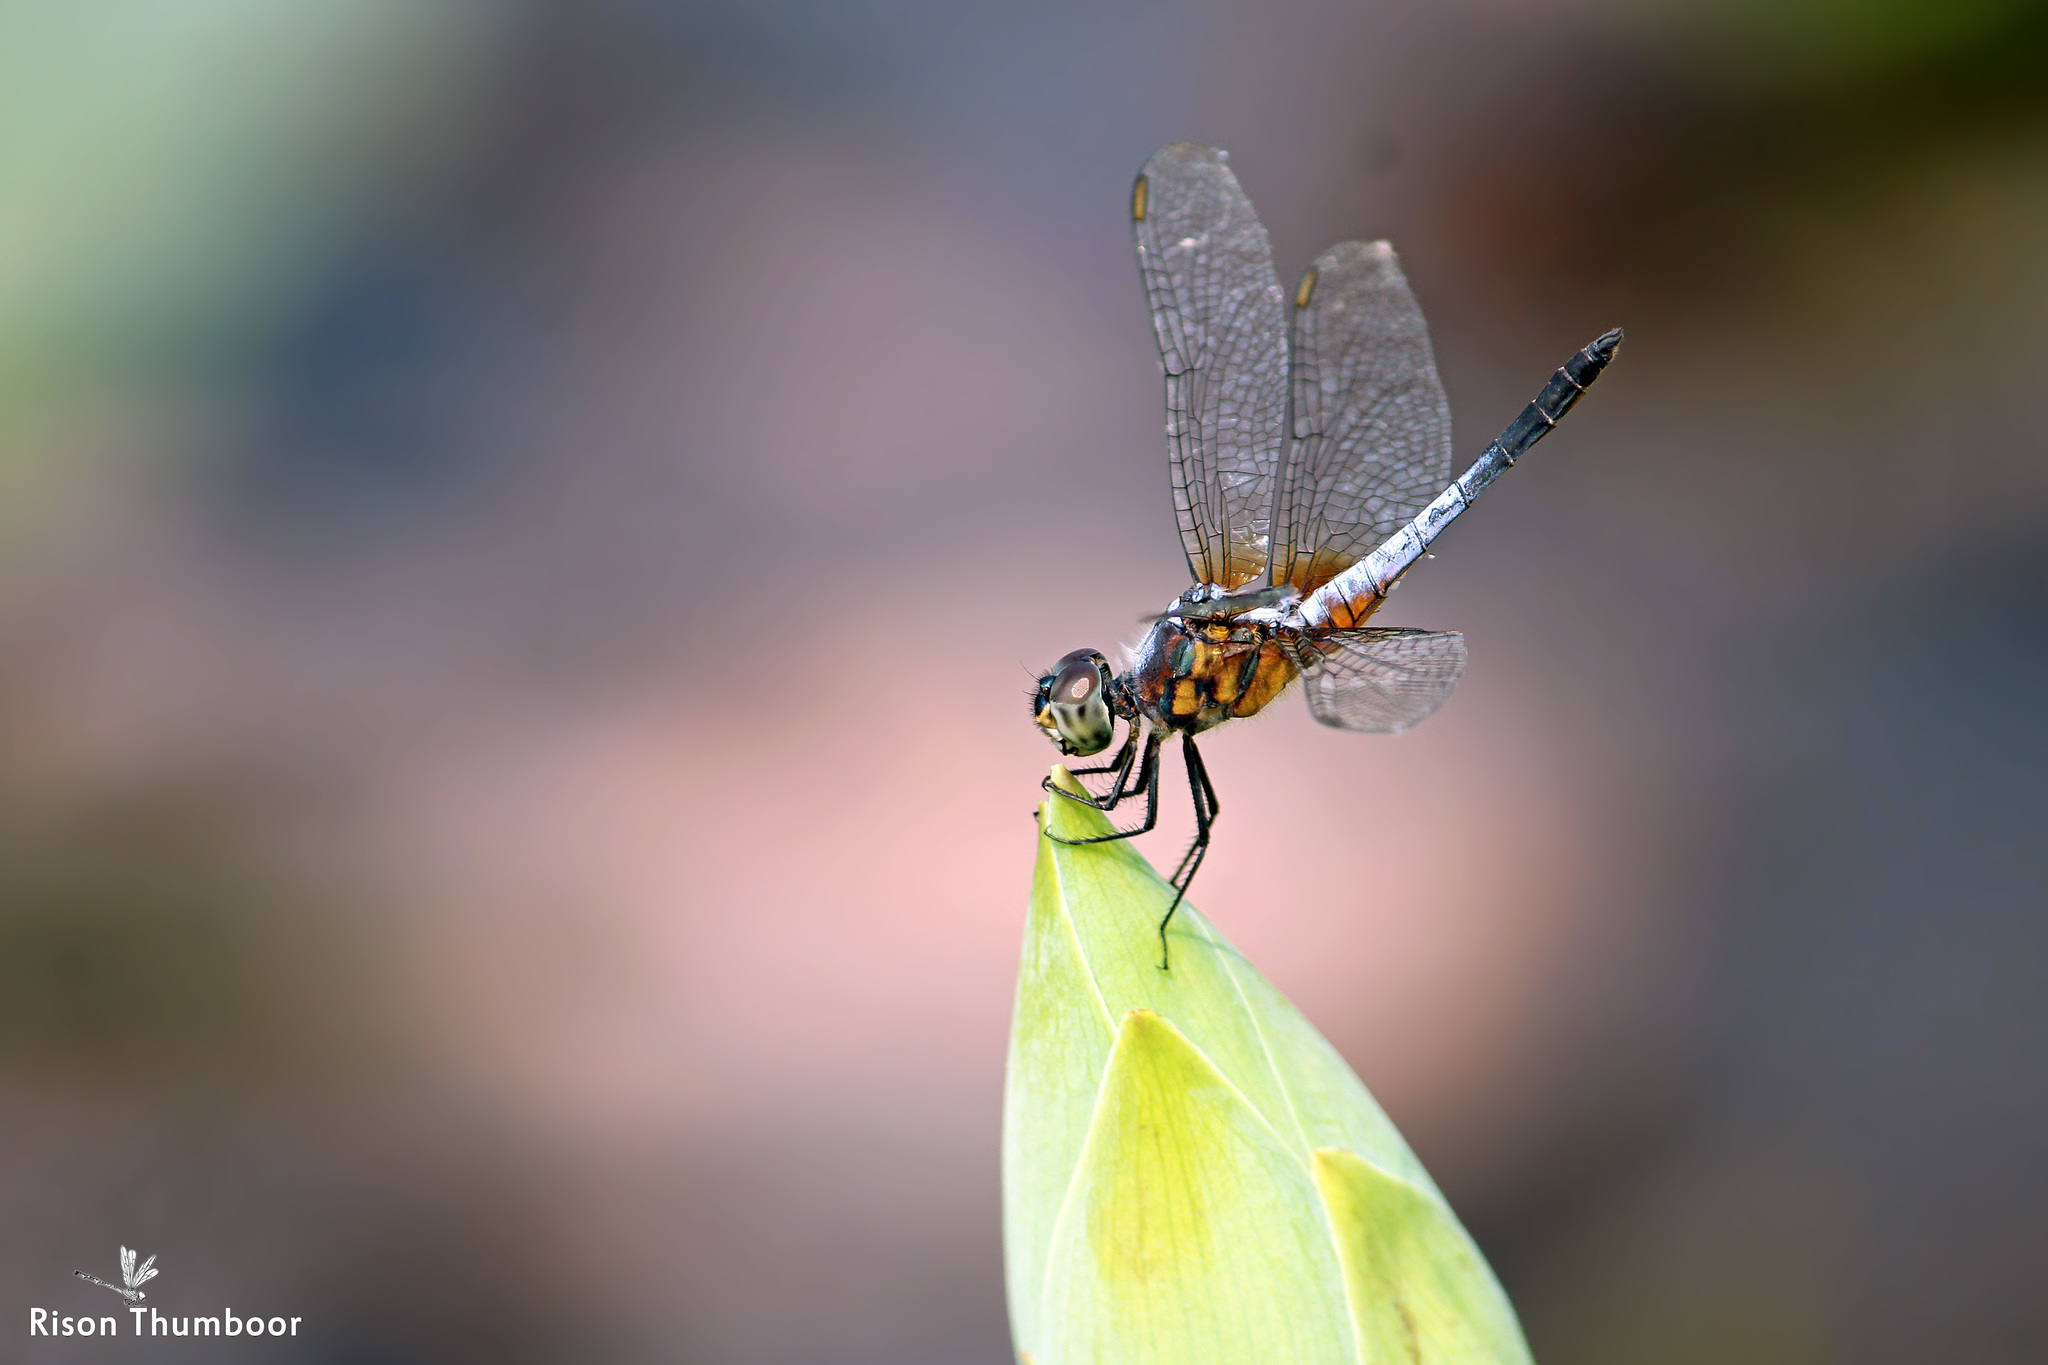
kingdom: Animalia
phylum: Arthropoda
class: Insecta
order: Odonata
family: Libellulidae
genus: Brachydiplax
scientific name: Brachydiplax chalybea
